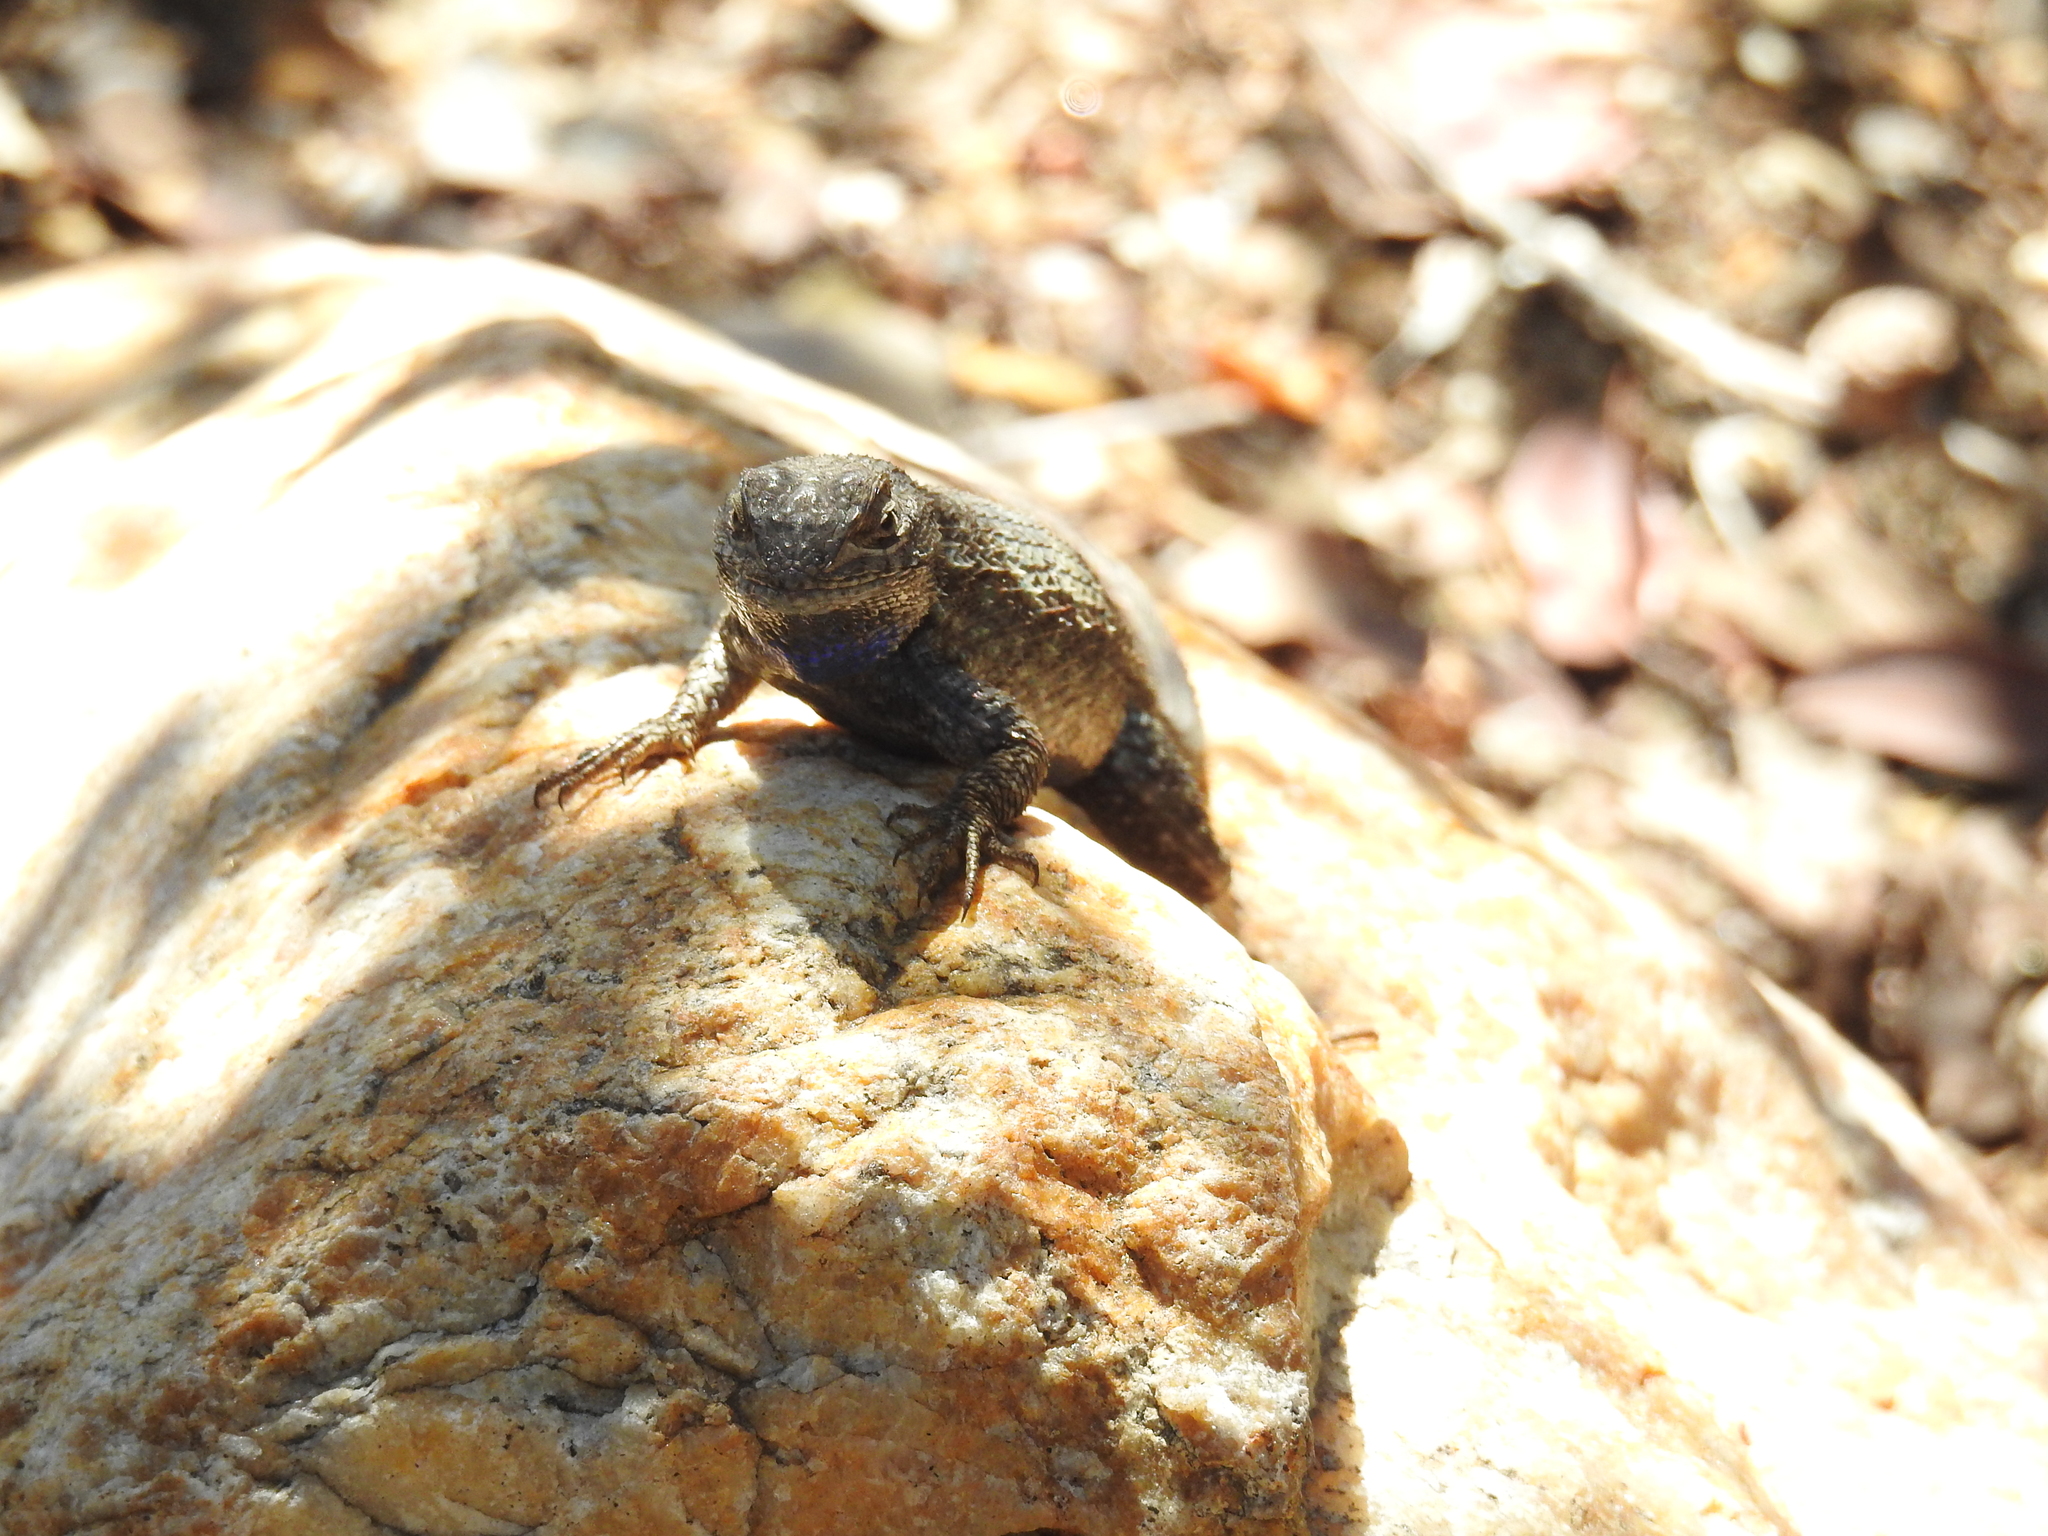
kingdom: Animalia
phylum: Chordata
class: Squamata
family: Phrynosomatidae
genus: Sceloporus
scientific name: Sceloporus occidentalis
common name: Western fence lizard
